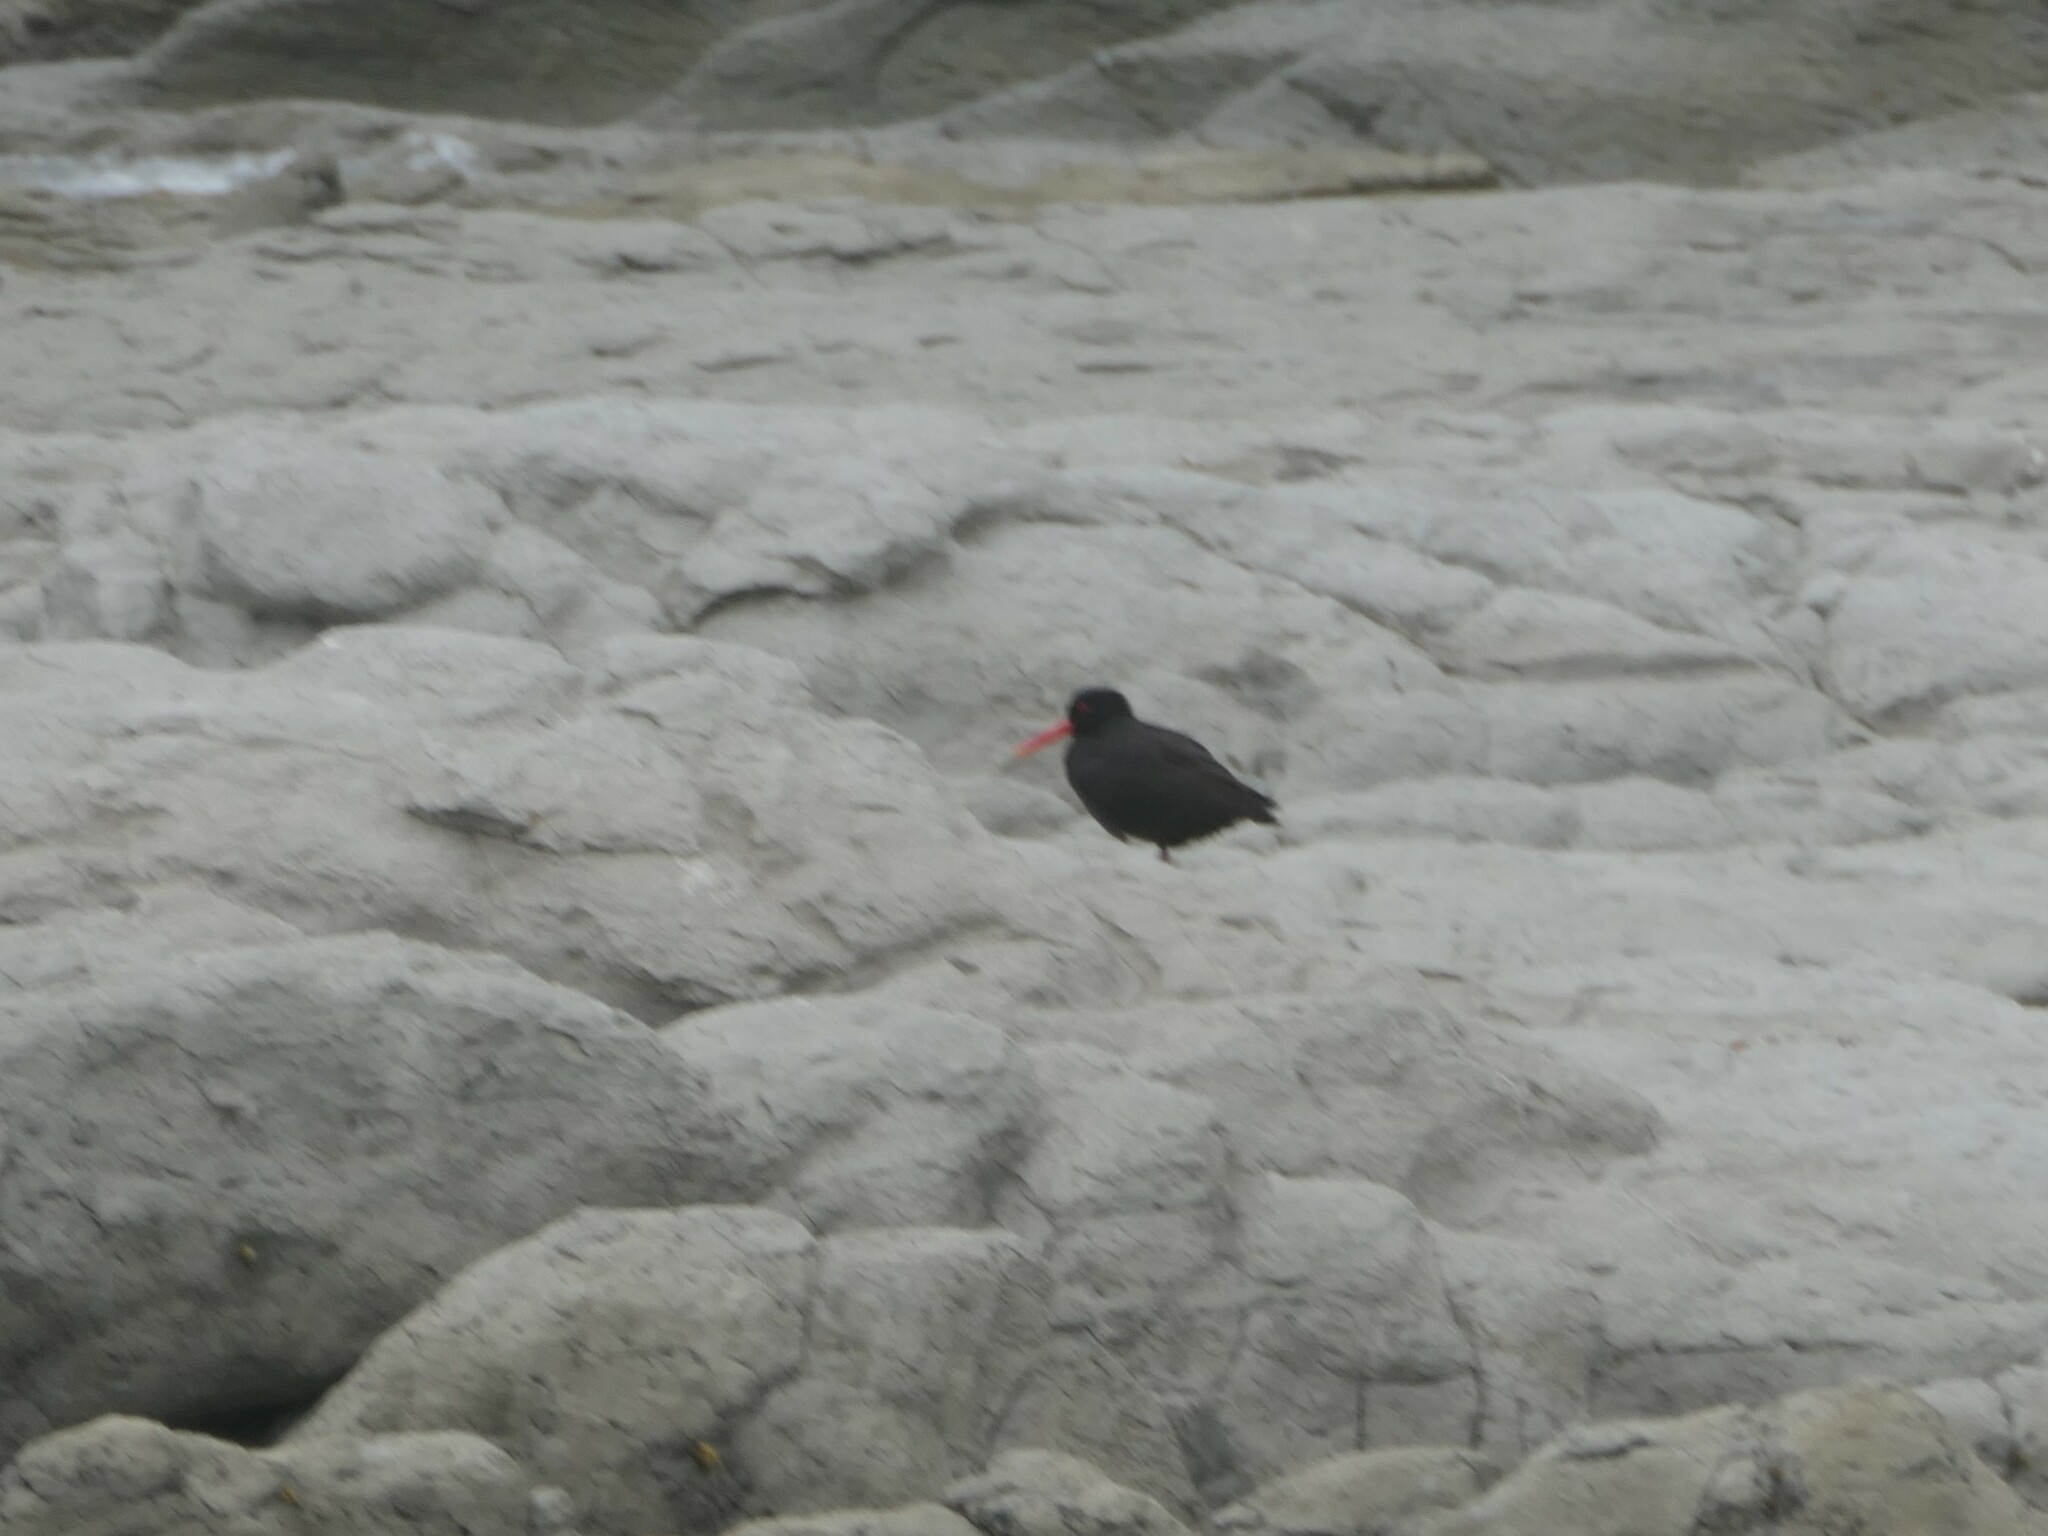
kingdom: Animalia
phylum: Chordata
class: Aves
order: Charadriiformes
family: Haematopodidae
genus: Haematopus
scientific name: Haematopus unicolor
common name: Variable oystercatcher
